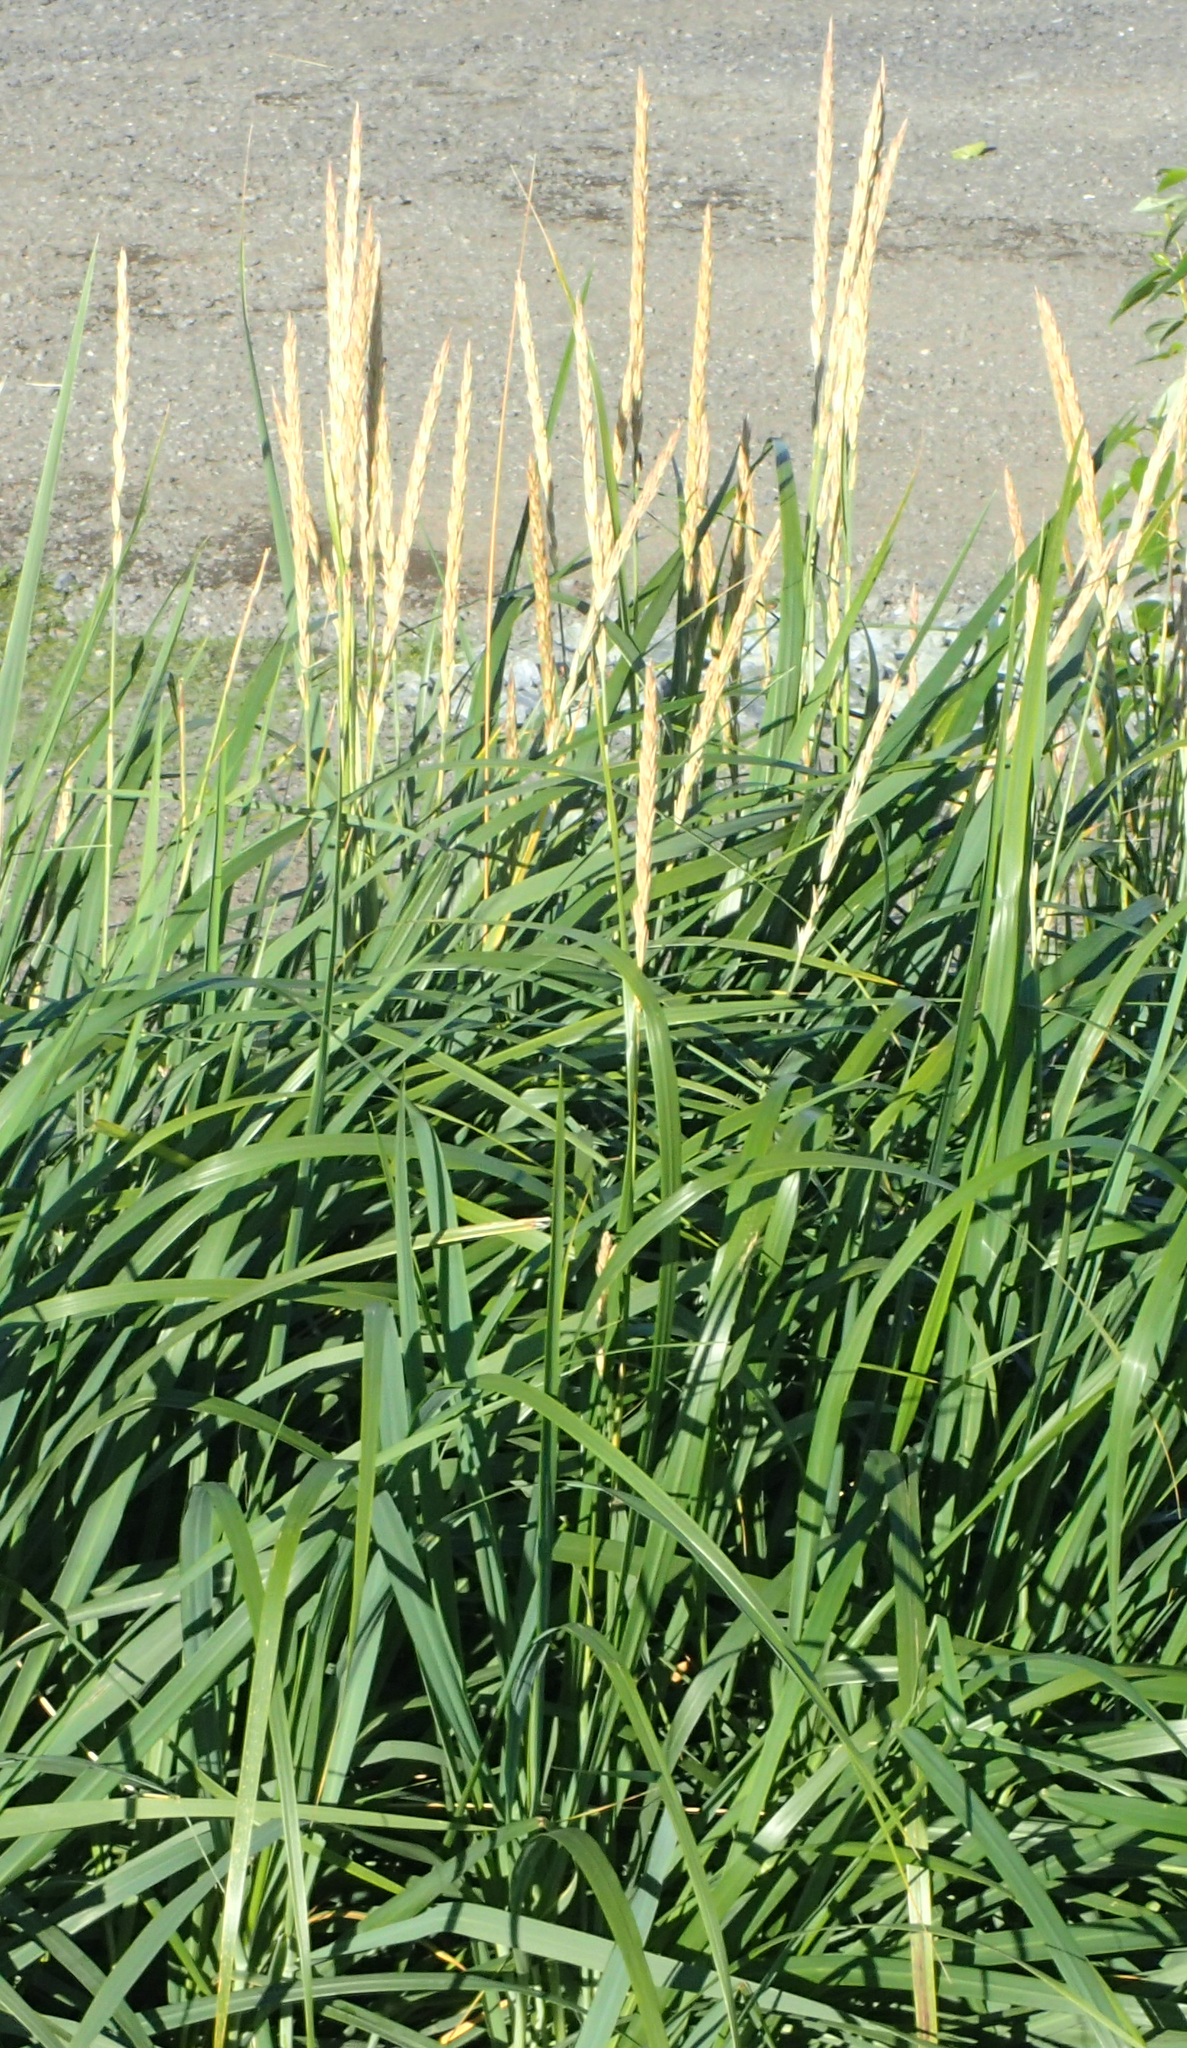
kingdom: Plantae
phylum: Tracheophyta
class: Liliopsida
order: Poales
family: Poaceae
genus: Leymus
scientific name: Leymus mollis
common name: American dune grass
